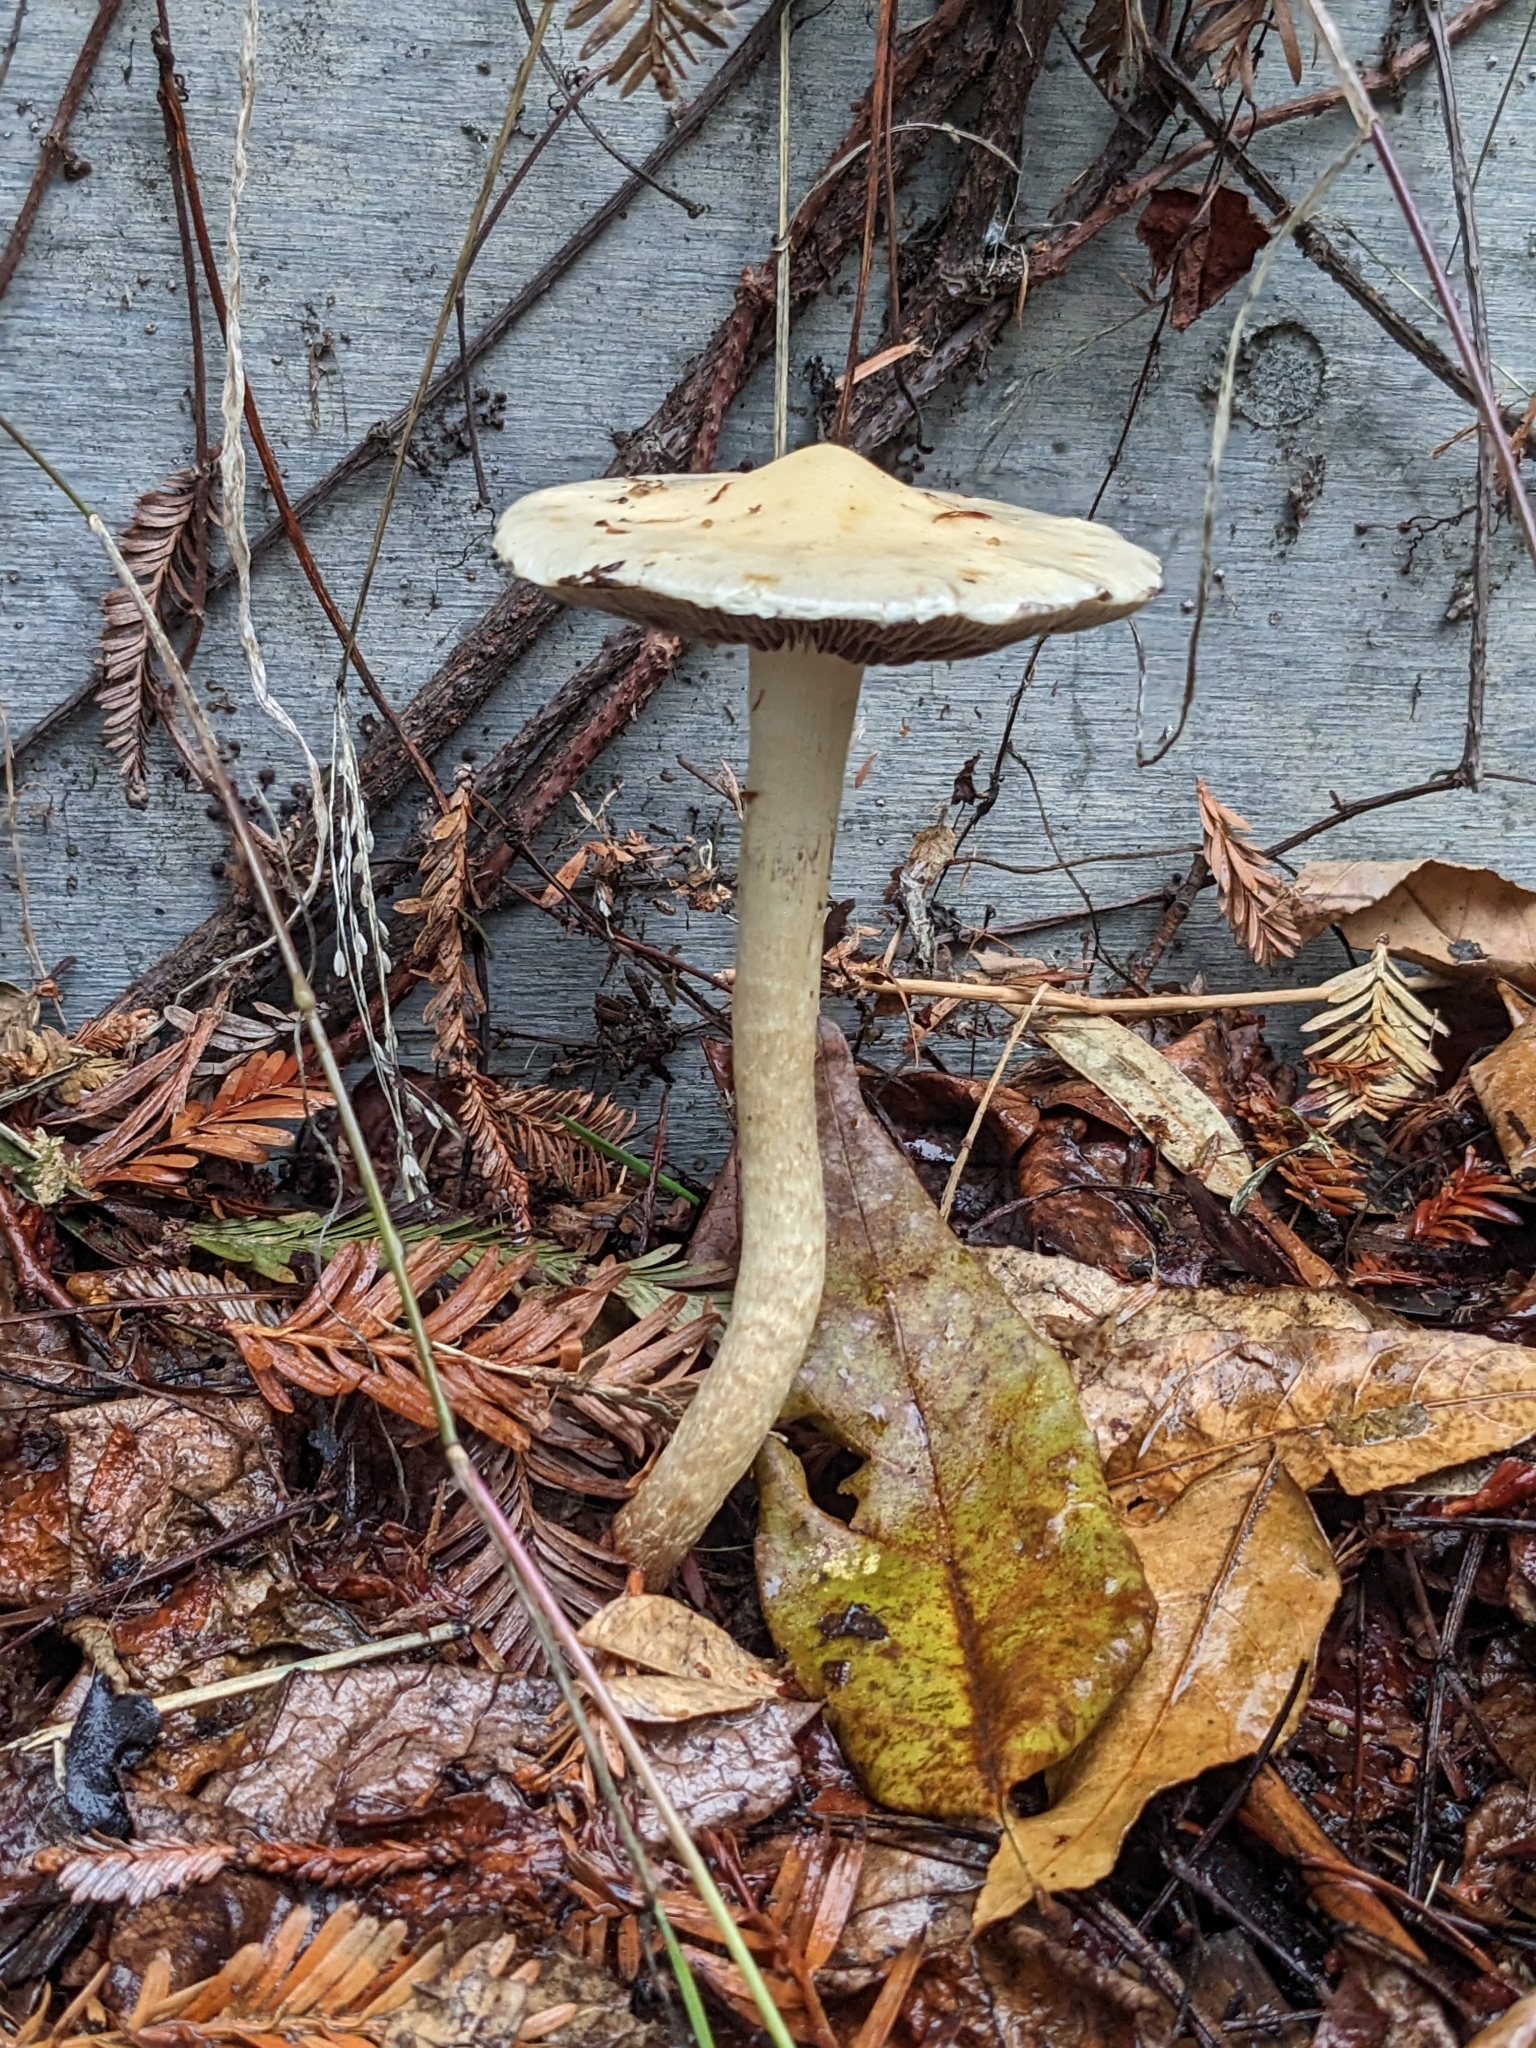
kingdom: Fungi
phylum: Basidiomycota
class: Agaricomycetes
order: Agaricales
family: Strophariaceae
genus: Leratiomyces
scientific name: Leratiomyces percevalii
